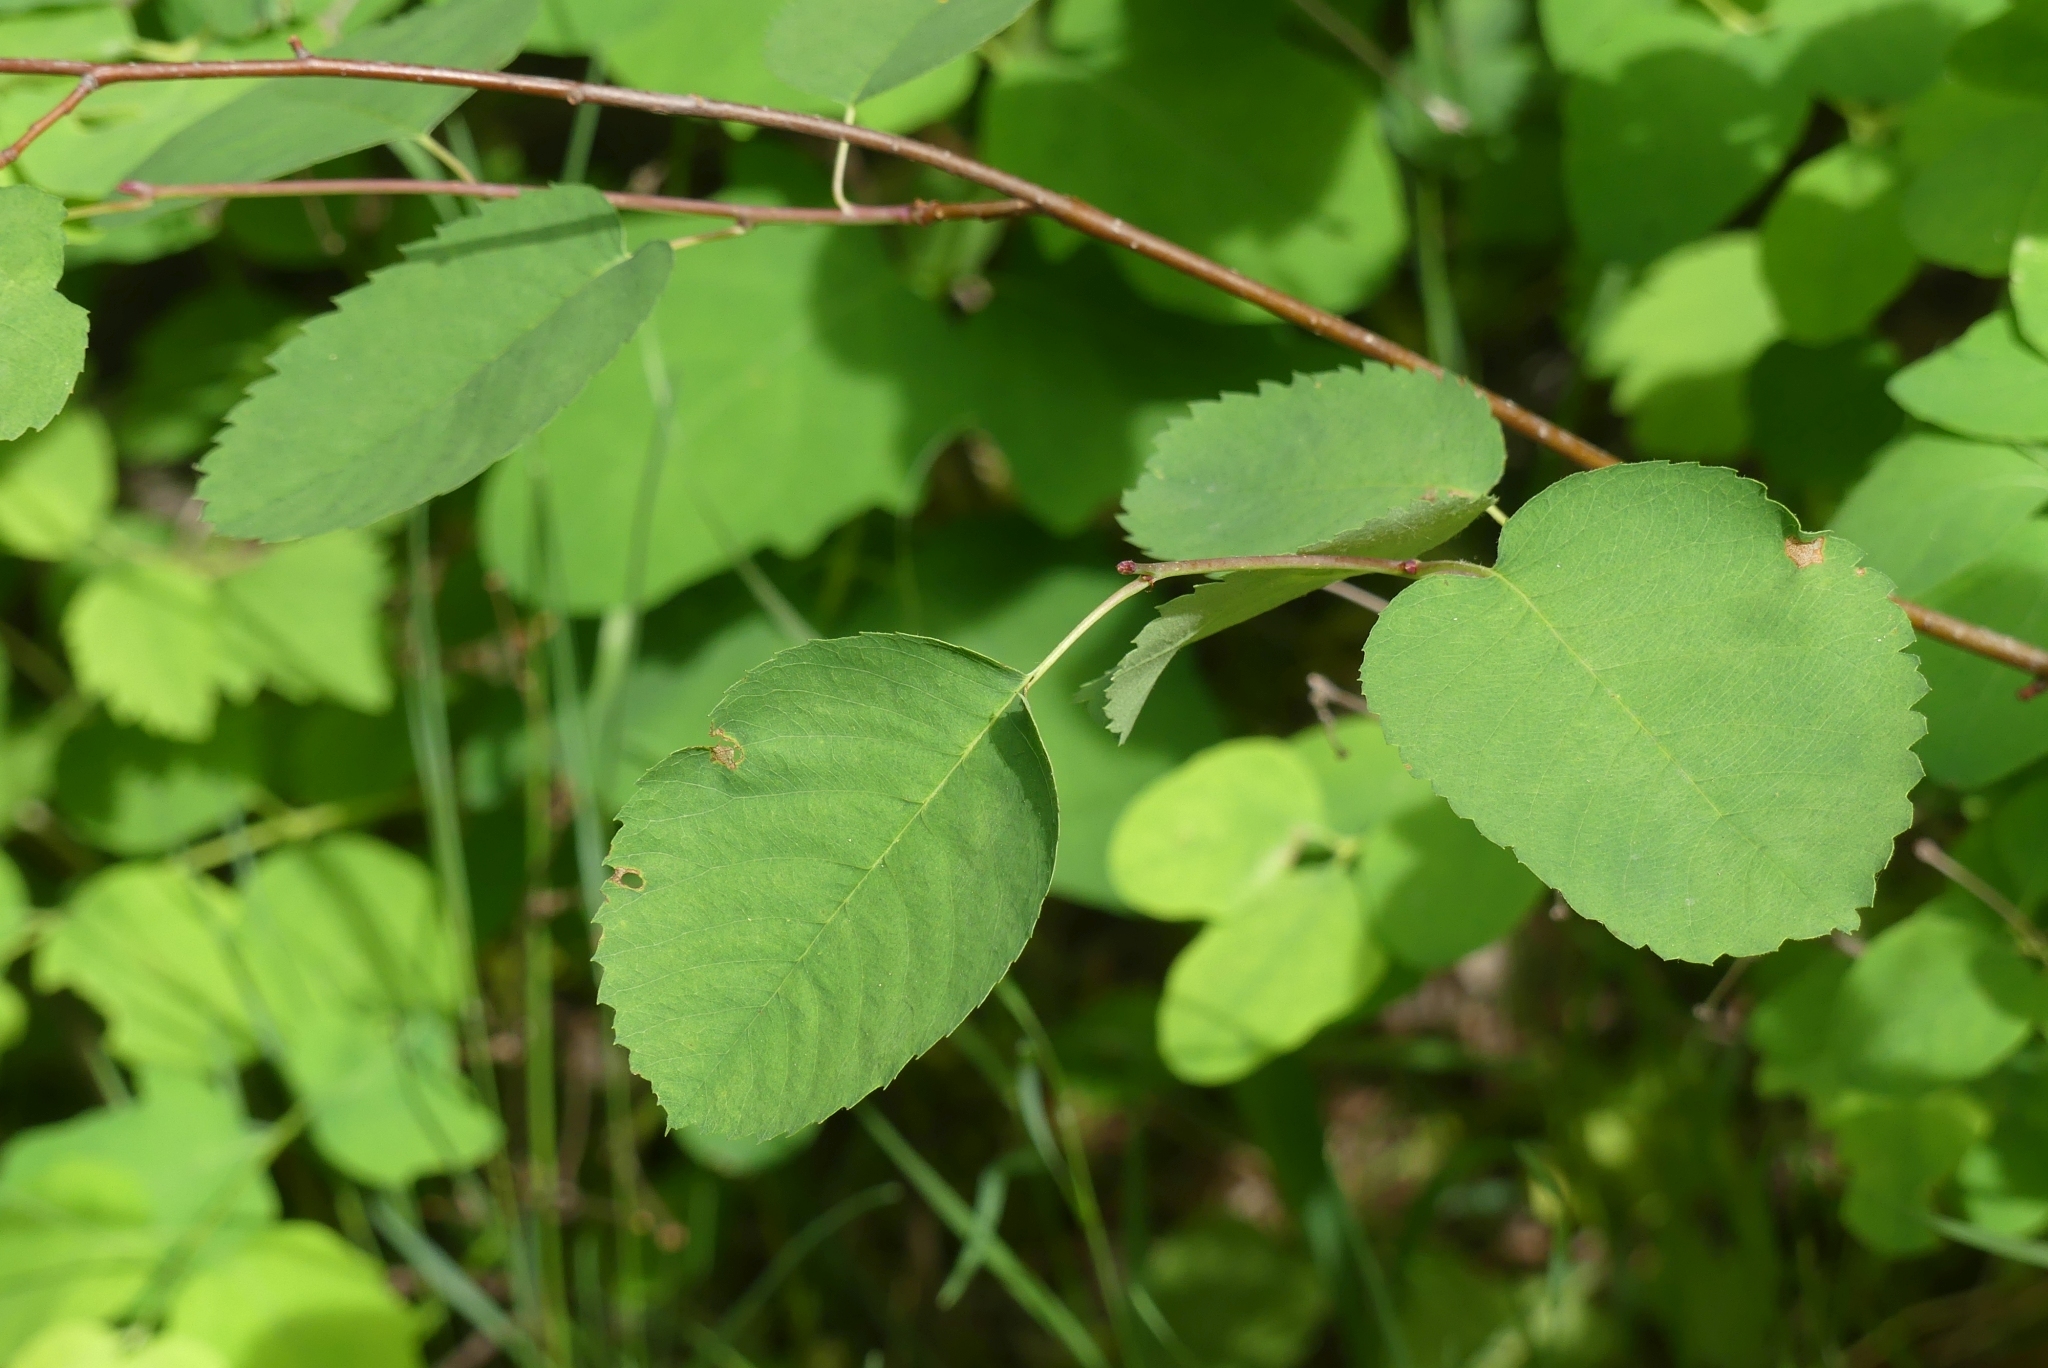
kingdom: Plantae
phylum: Tracheophyta
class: Magnoliopsida
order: Rosales
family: Rosaceae
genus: Amelanchier
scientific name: Amelanchier alnifolia
